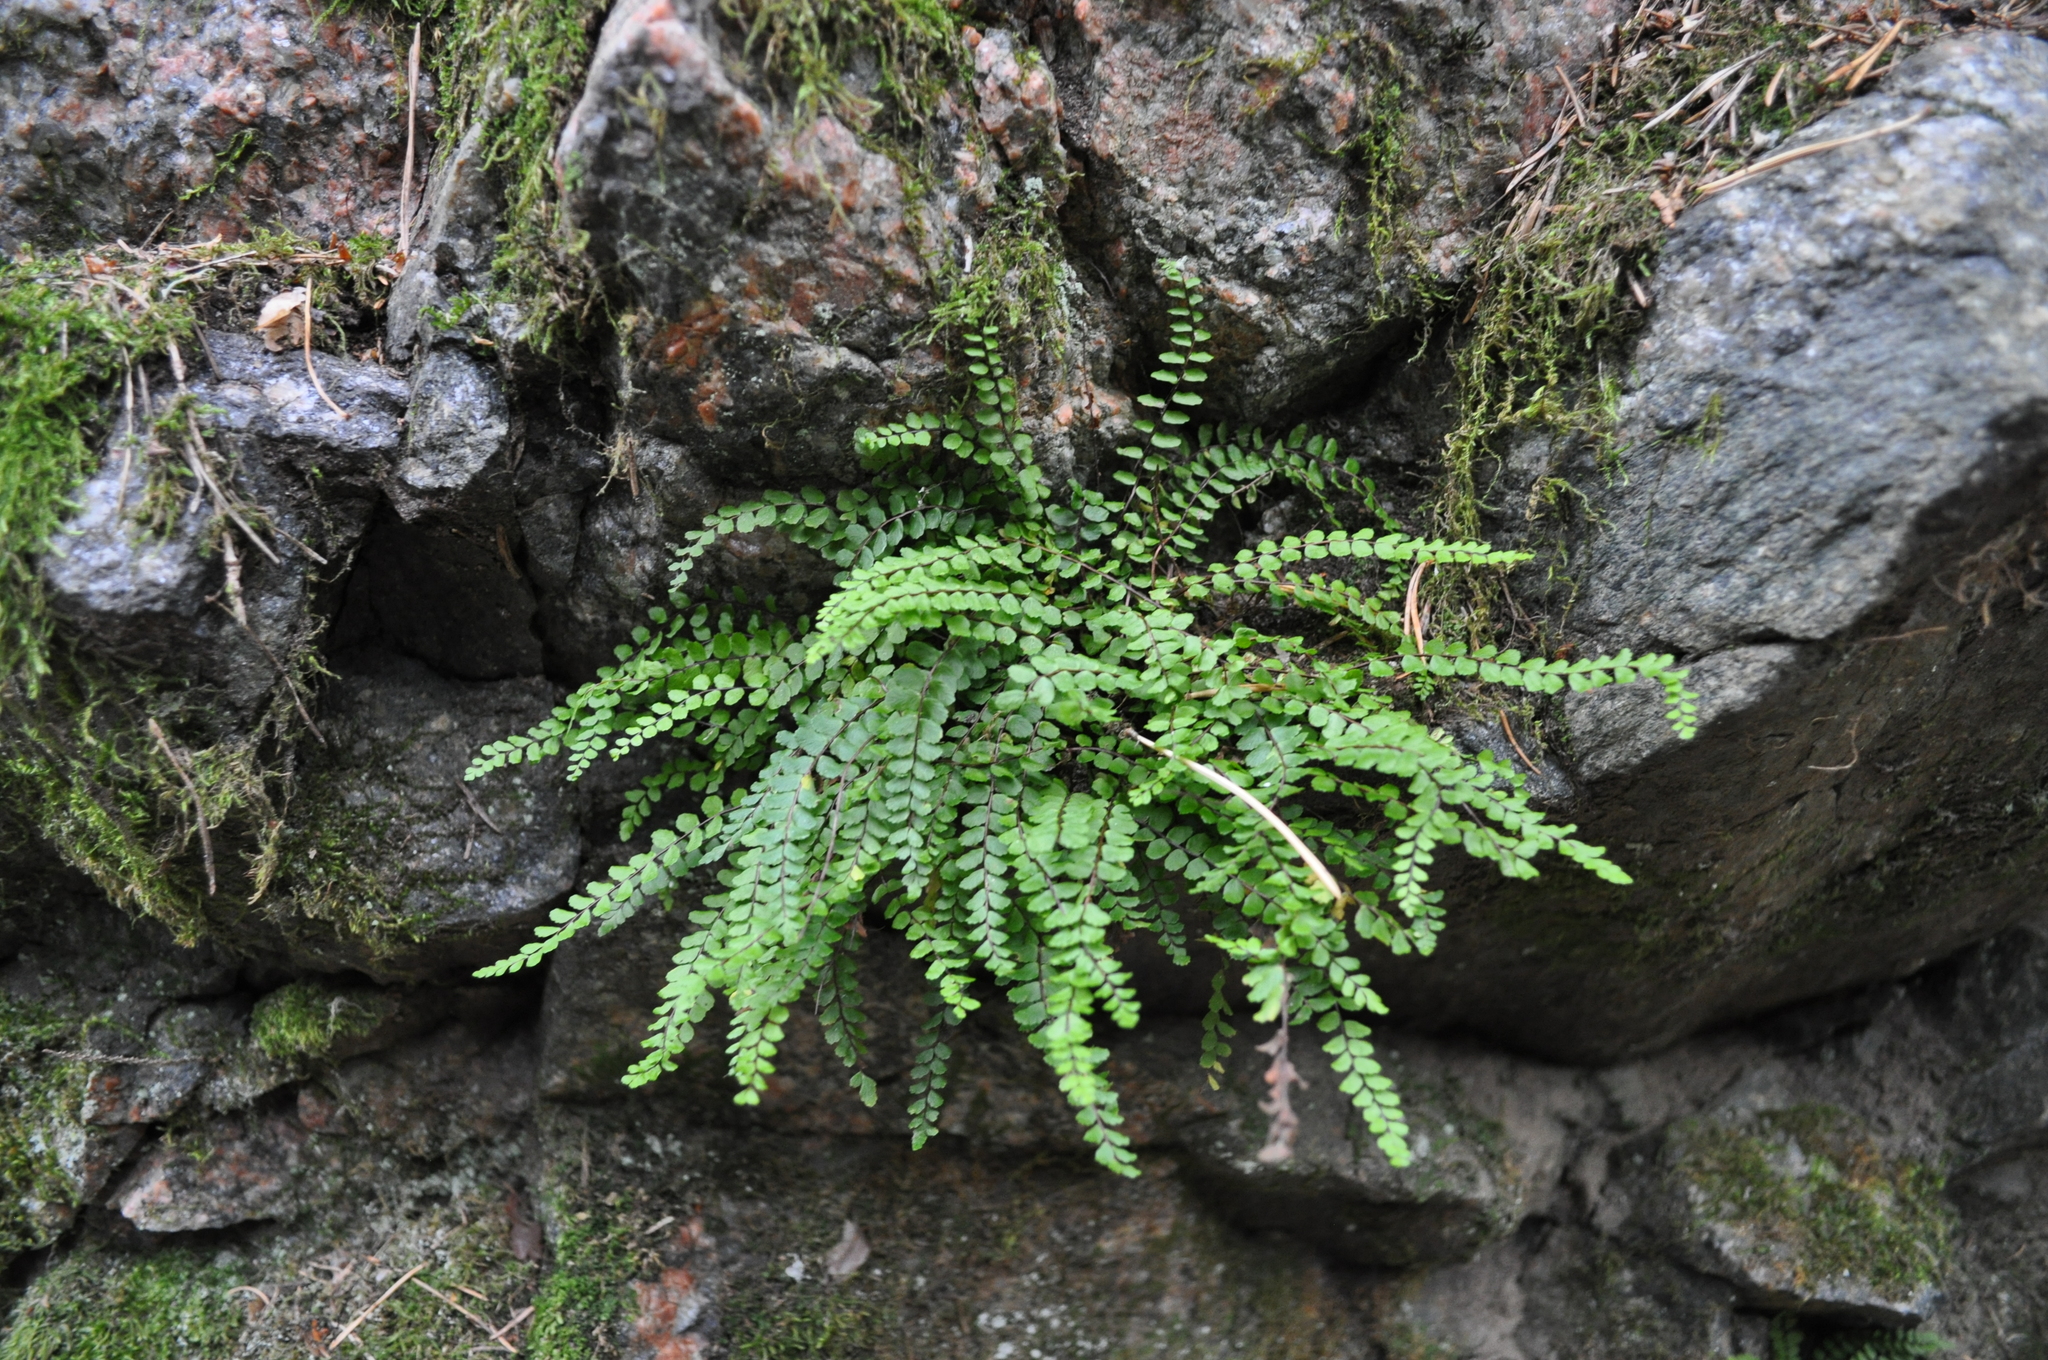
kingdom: Plantae
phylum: Tracheophyta
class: Polypodiopsida
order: Polypodiales
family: Aspleniaceae
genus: Asplenium
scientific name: Asplenium trichomanes
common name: Maidenhair spleenwort
